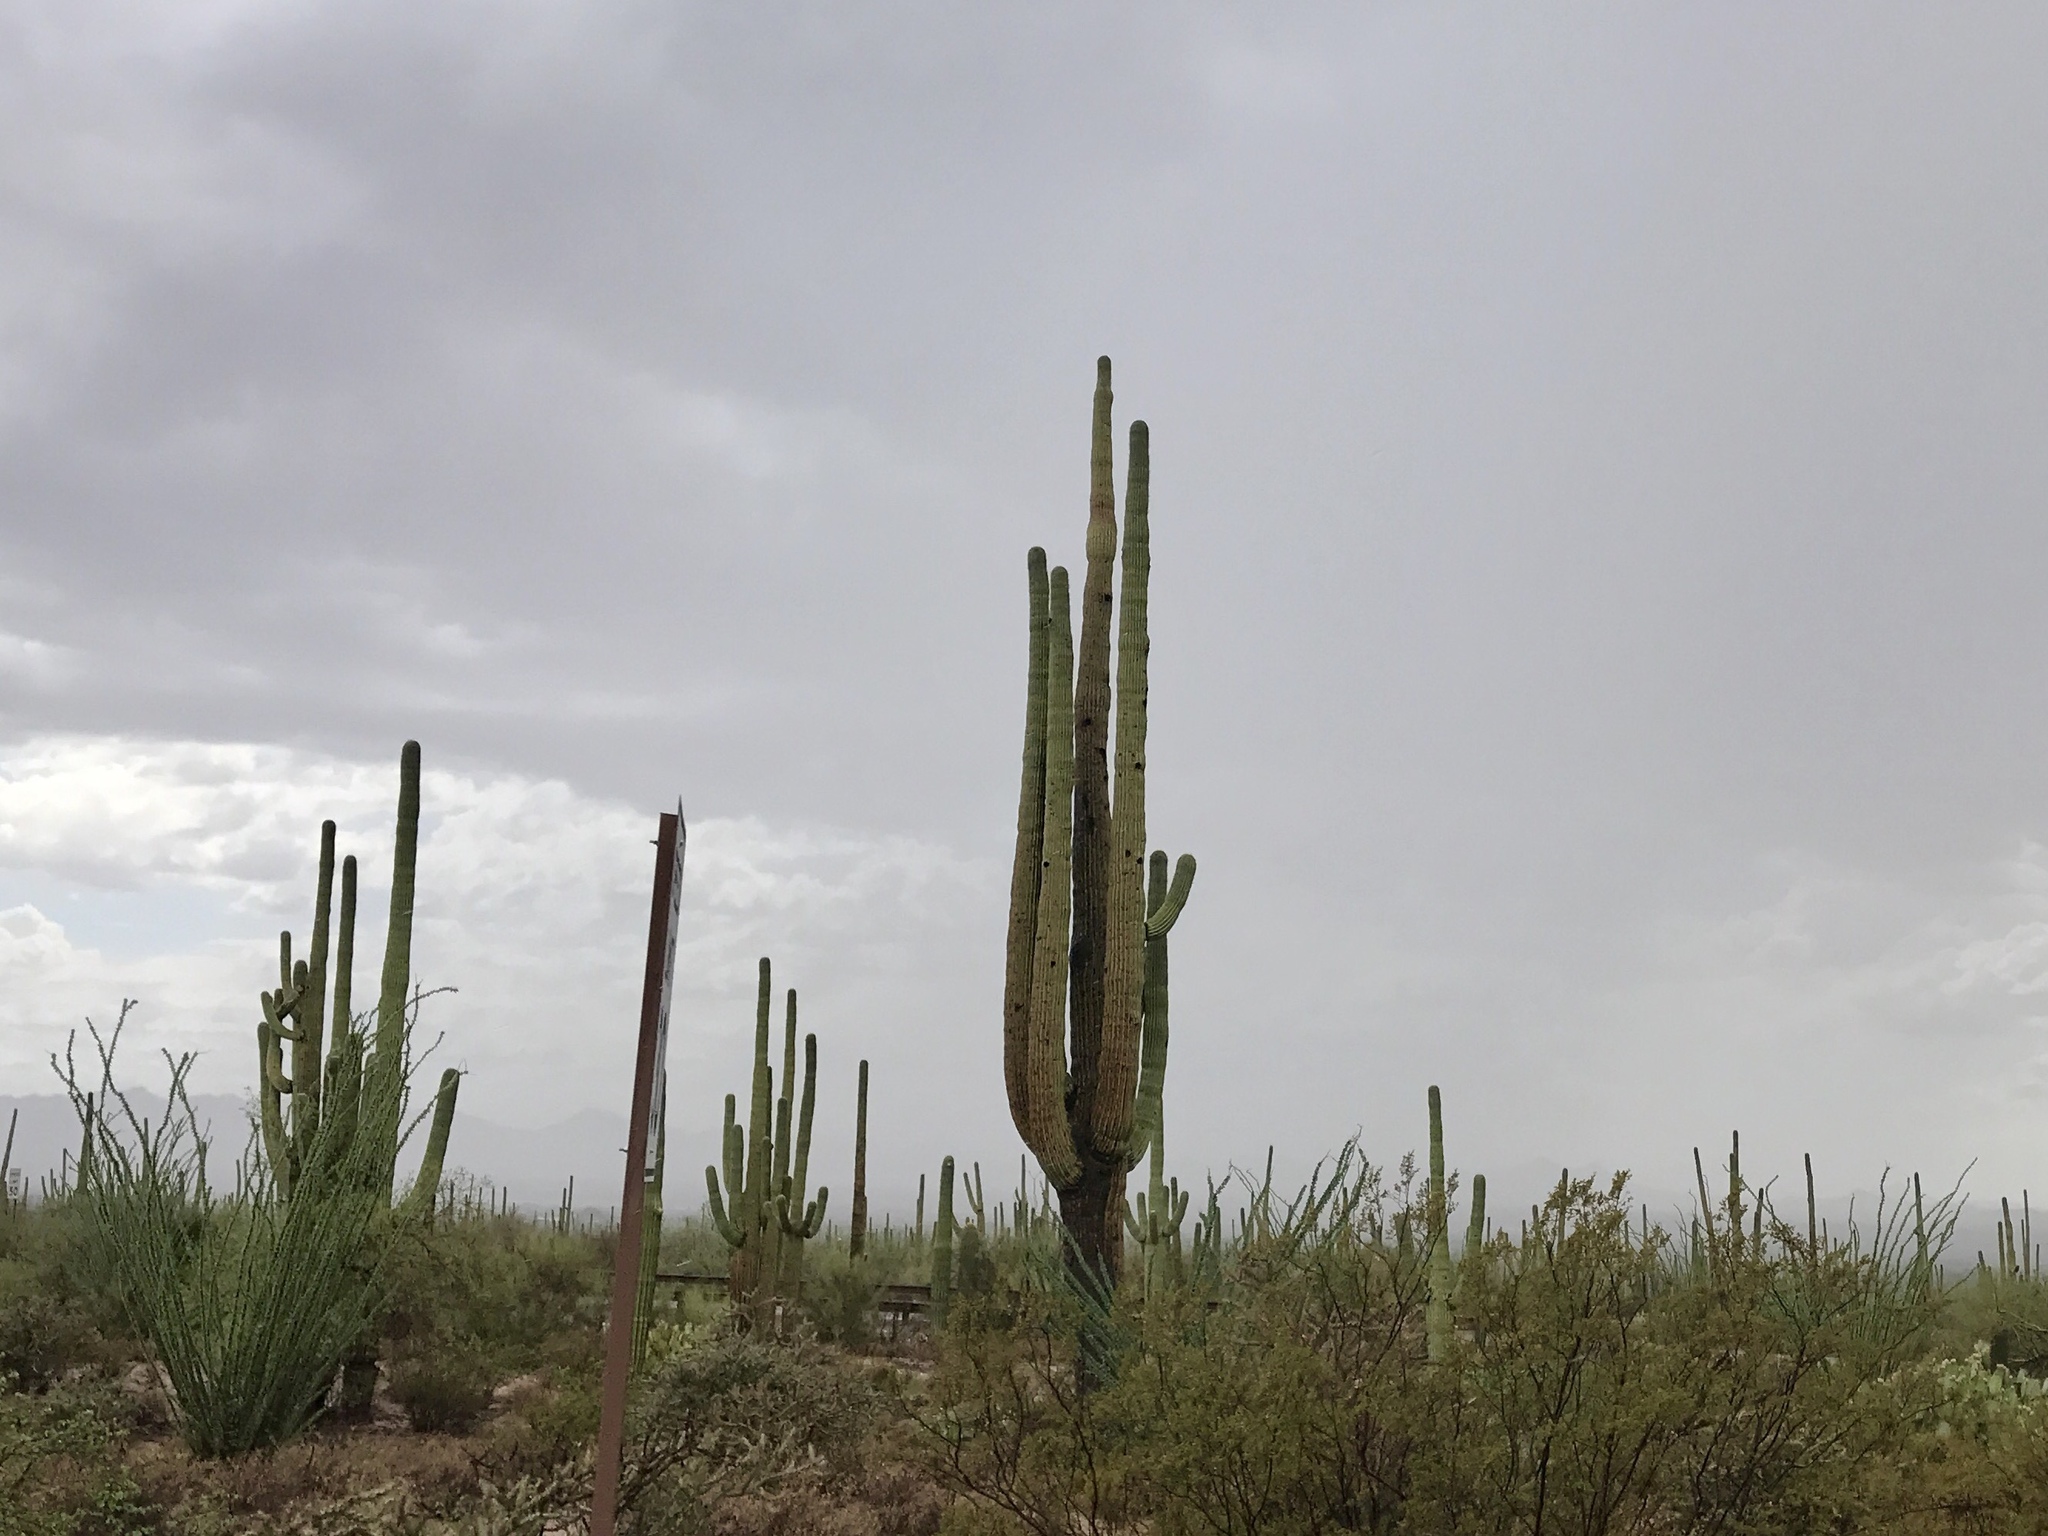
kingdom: Plantae
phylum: Tracheophyta
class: Magnoliopsida
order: Caryophyllales
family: Cactaceae
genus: Carnegiea
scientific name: Carnegiea gigantea
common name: Saguaro
